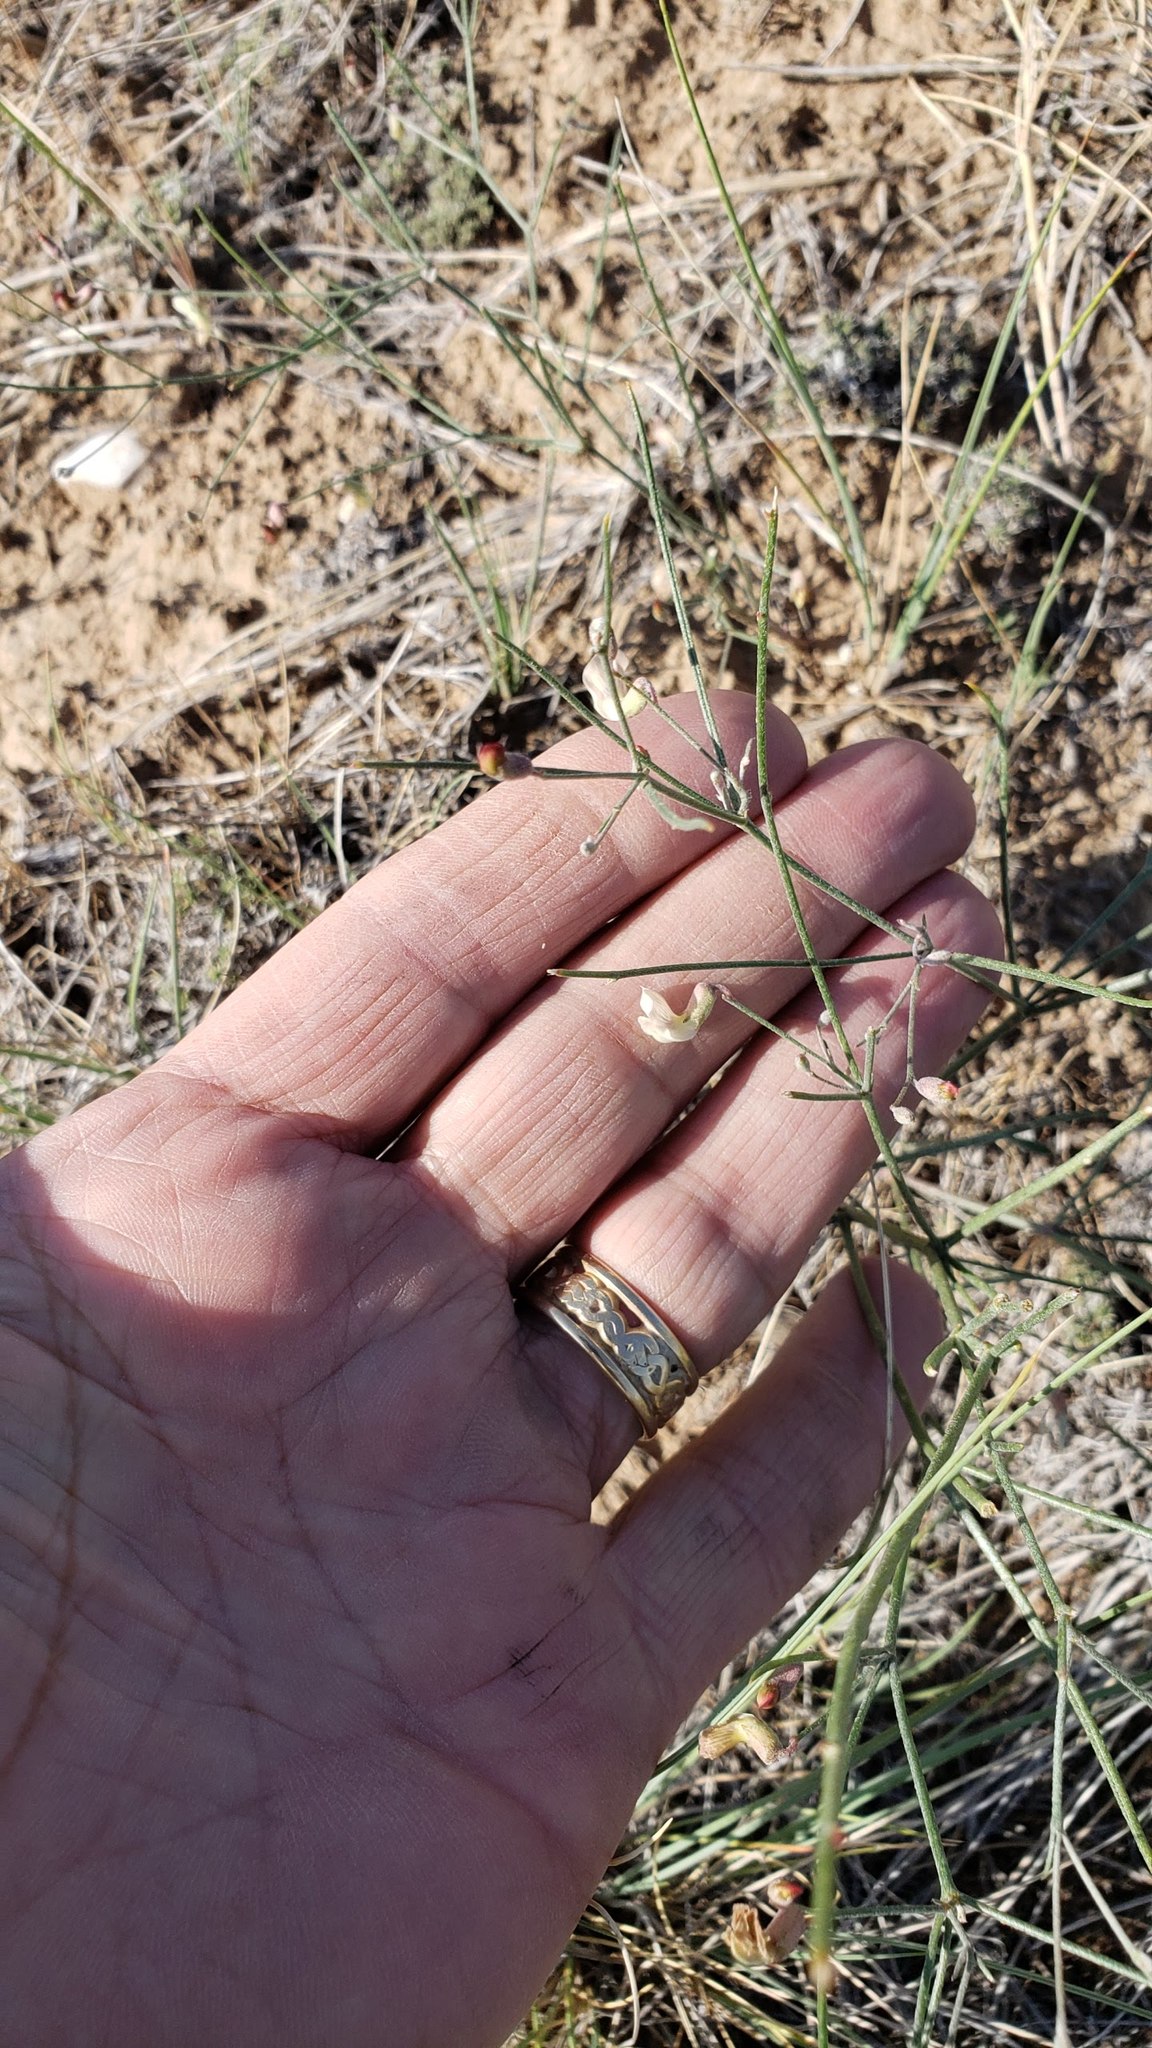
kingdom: Plantae
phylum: Tracheophyta
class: Magnoliopsida
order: Fabales
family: Fabaceae
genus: Astragalus
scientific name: Astragalus convallarius
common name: Lesser rushy milk-vetch
